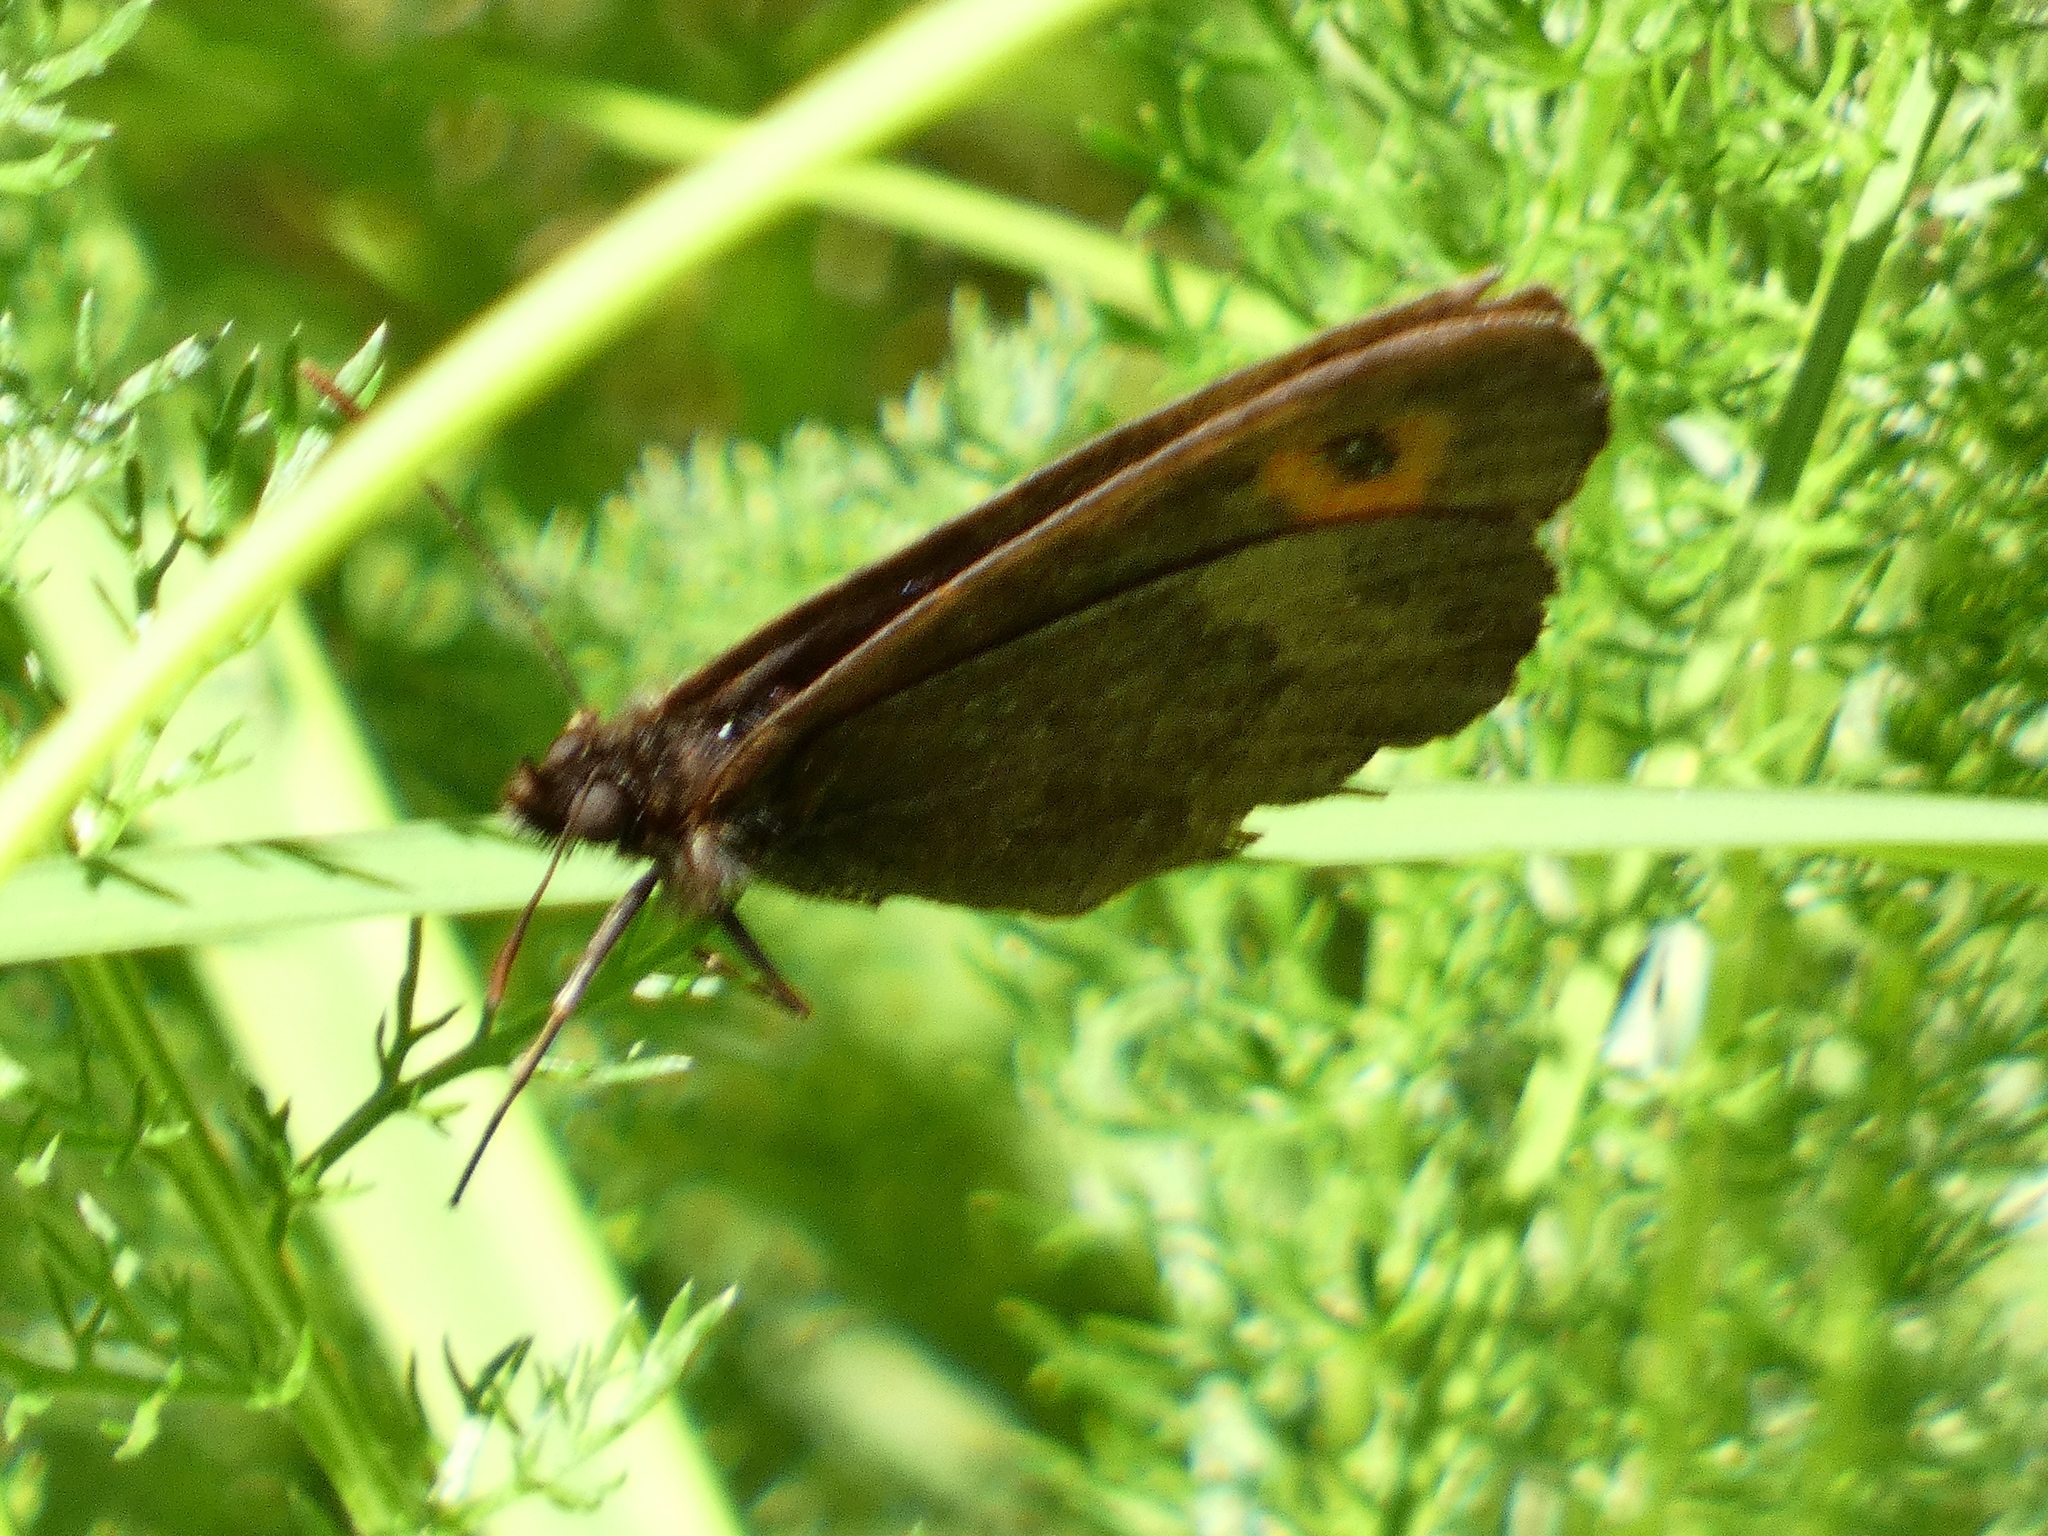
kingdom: Animalia
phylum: Arthropoda
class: Insecta
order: Lepidoptera
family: Nymphalidae
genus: Erebia
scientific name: Erebia aethiops
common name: Scotch argus
